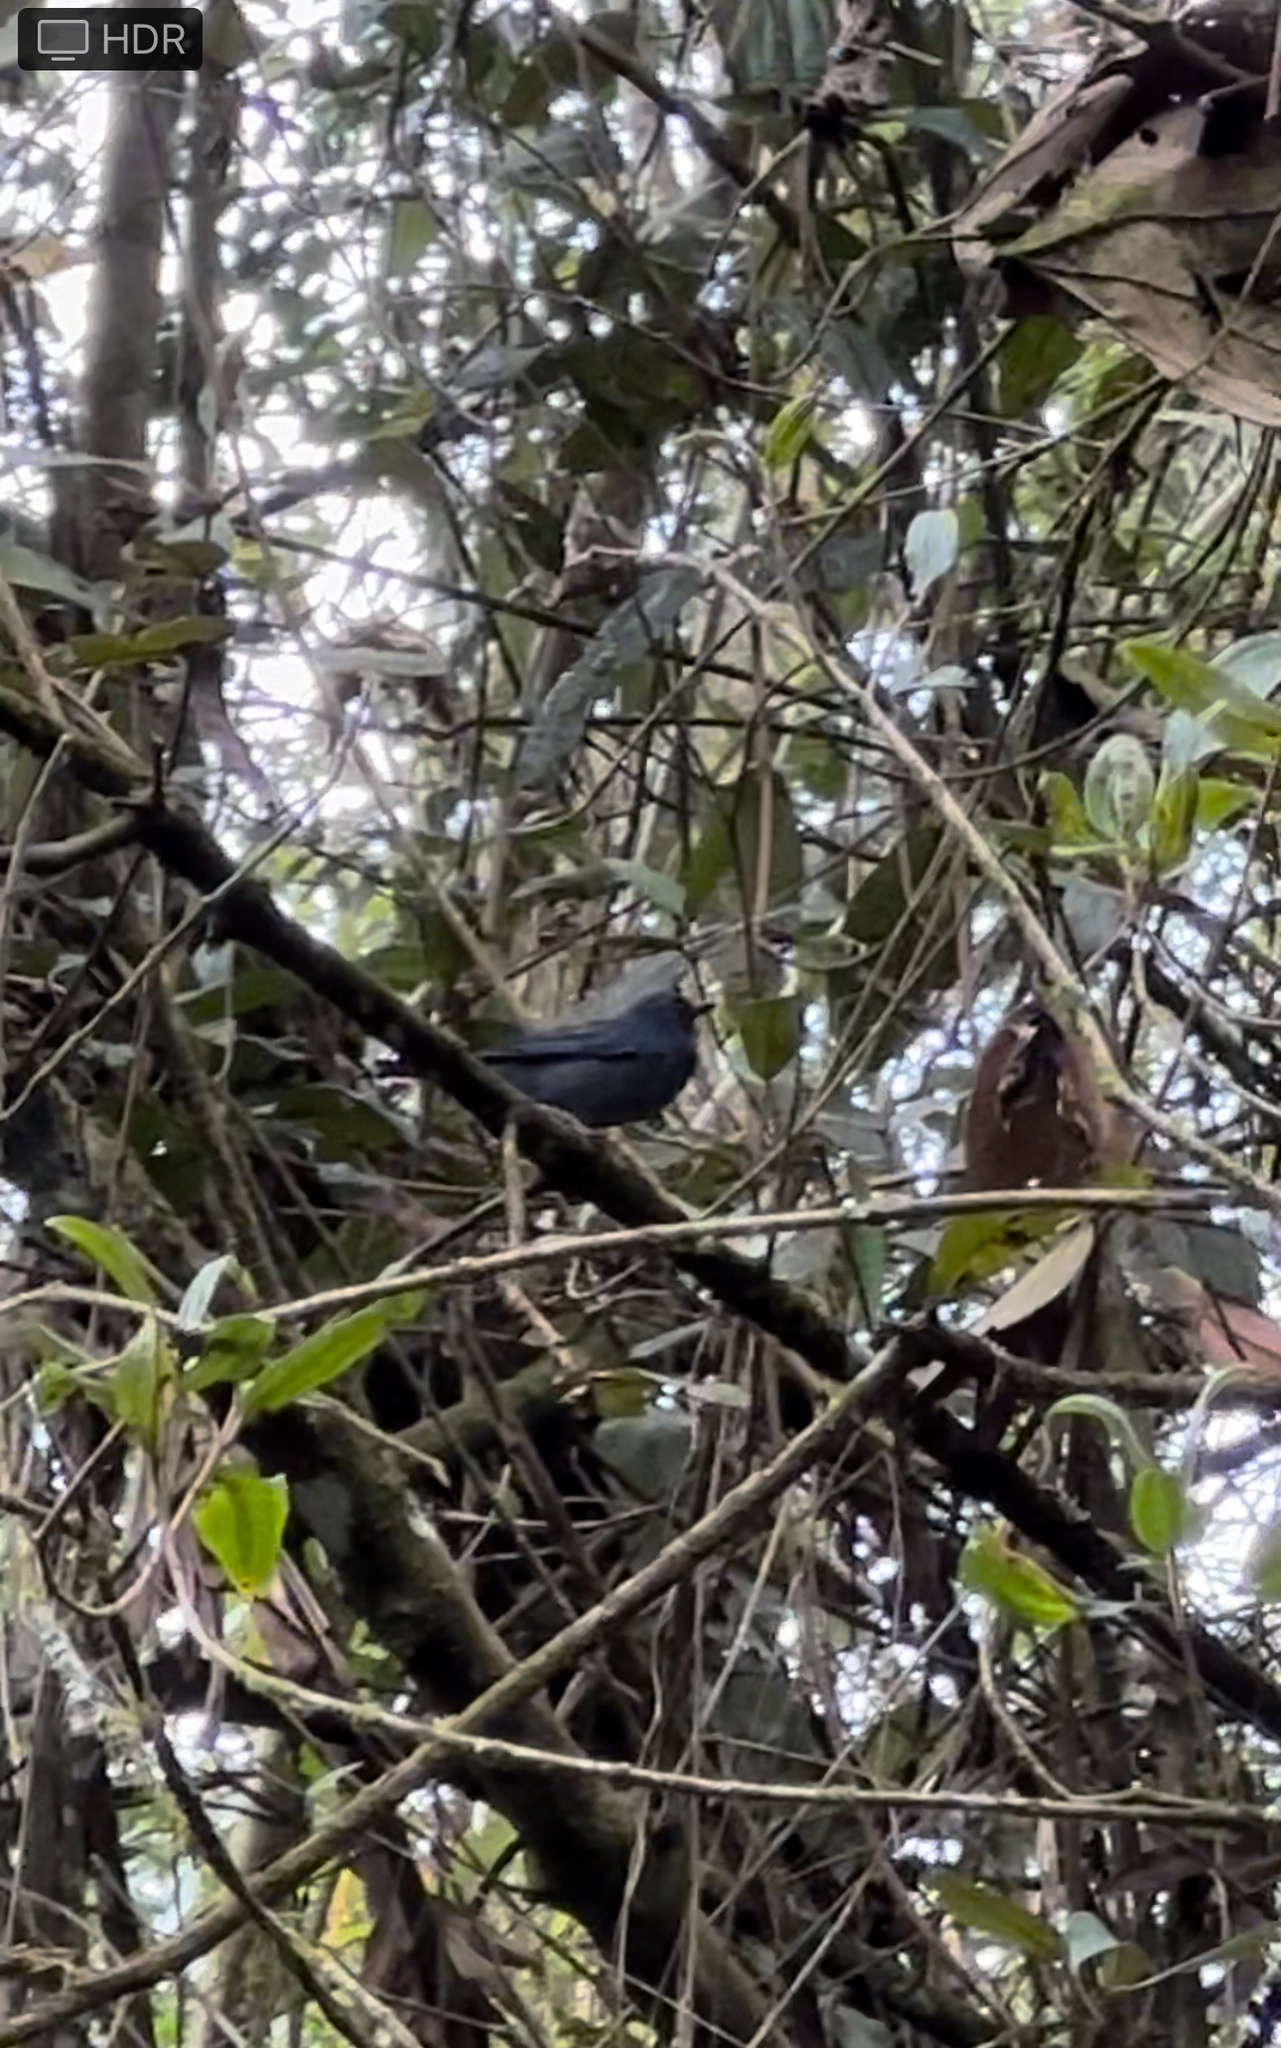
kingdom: Animalia
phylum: Chordata
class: Aves
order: Passeriformes
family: Thraupidae
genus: Diglossa
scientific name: Diglossa caerulescens
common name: Bluish flowerpiercer
